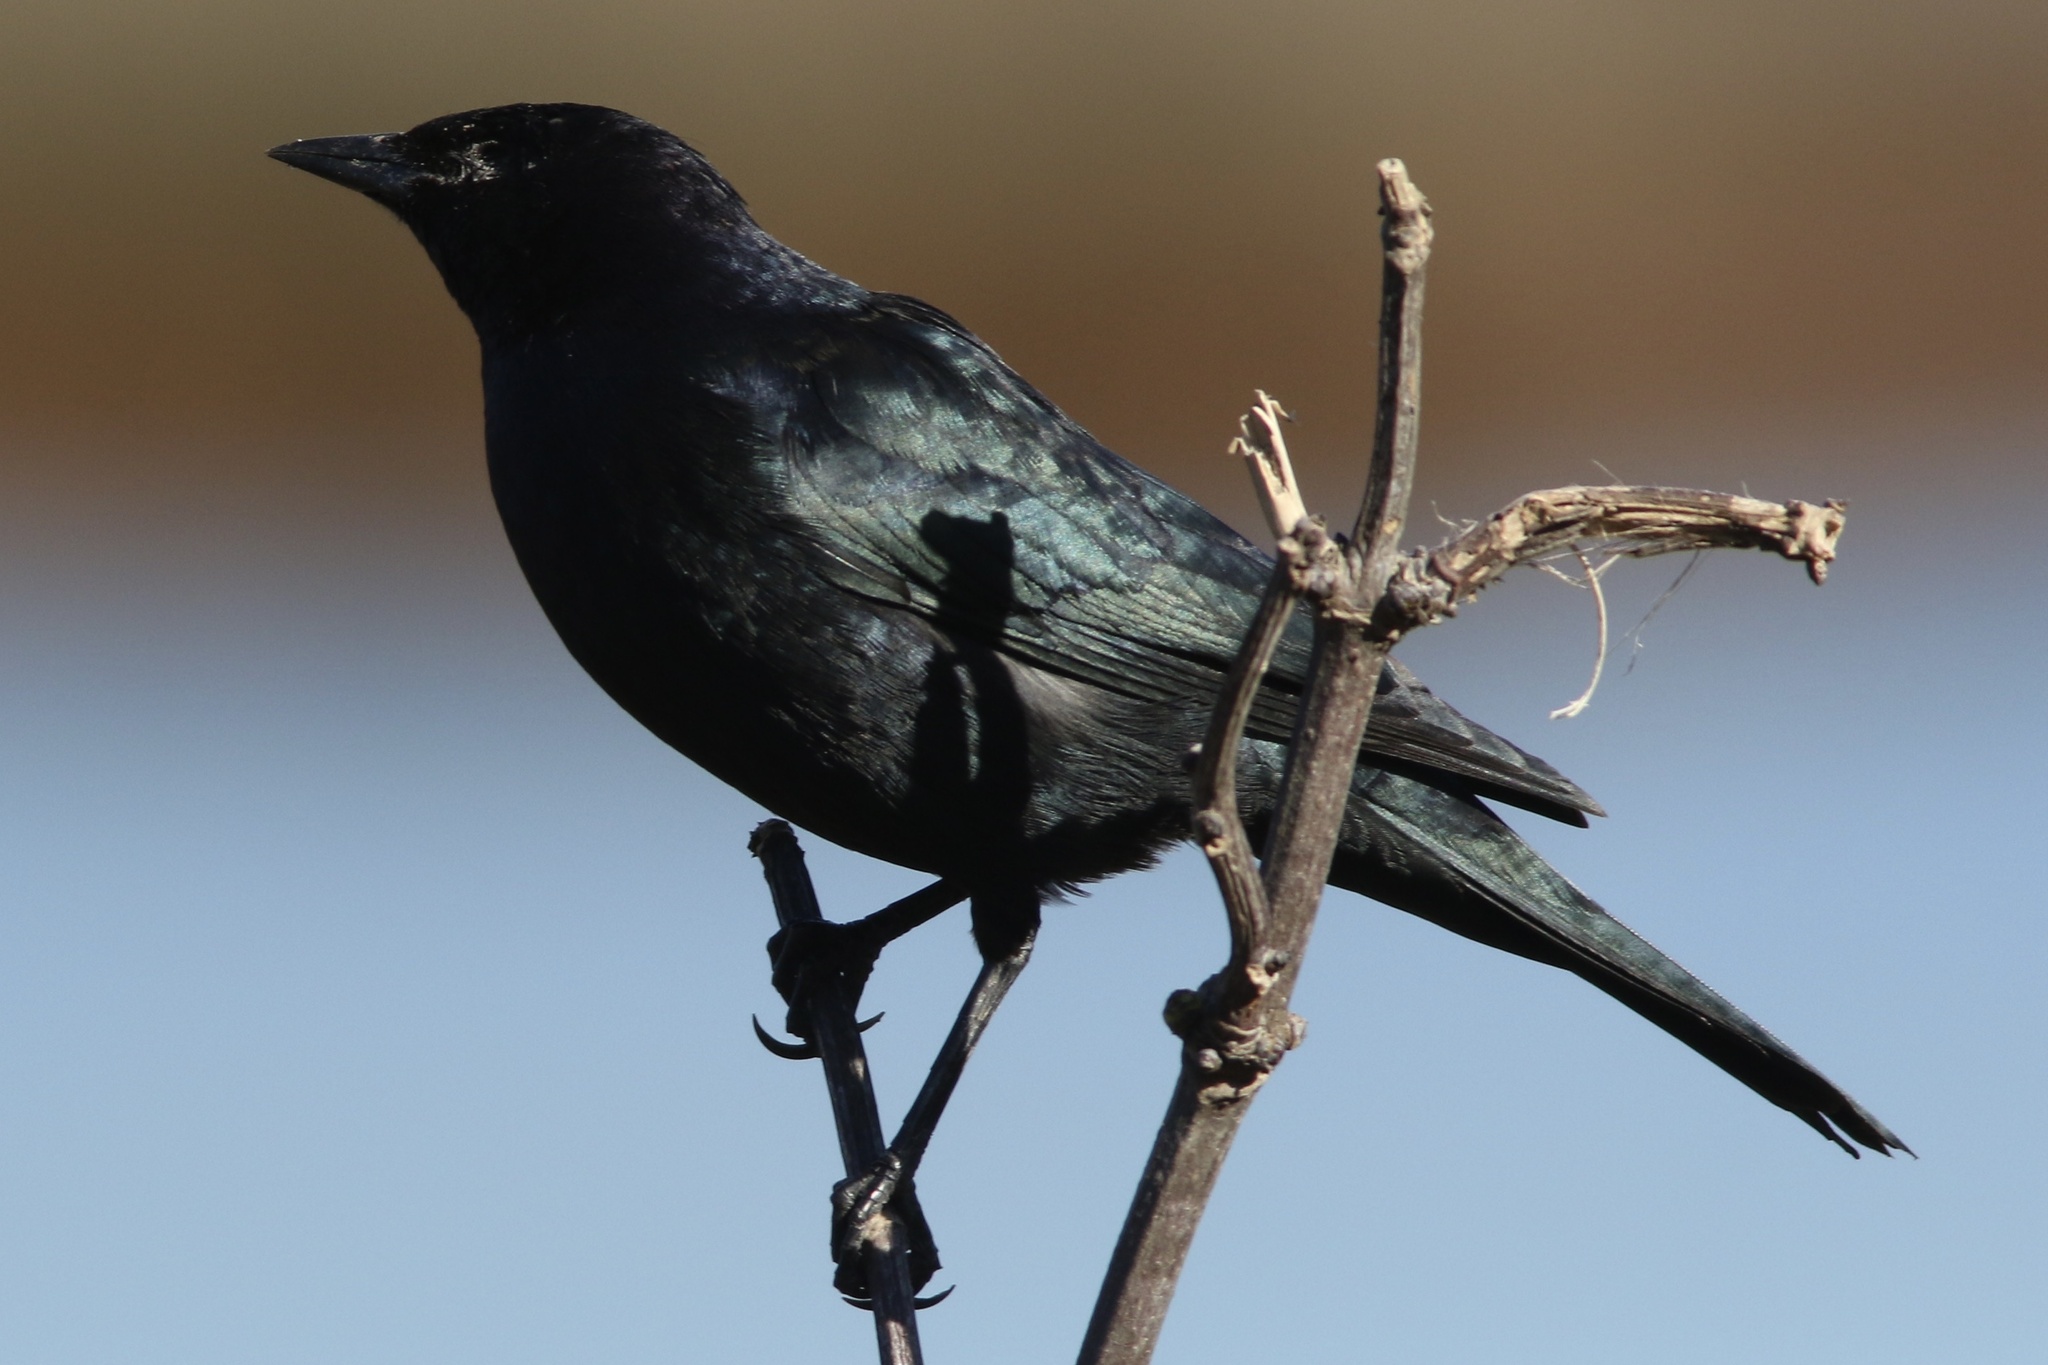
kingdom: Animalia
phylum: Chordata
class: Aves
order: Passeriformes
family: Icteridae
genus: Euphagus
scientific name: Euphagus cyanocephalus
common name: Brewer's blackbird
